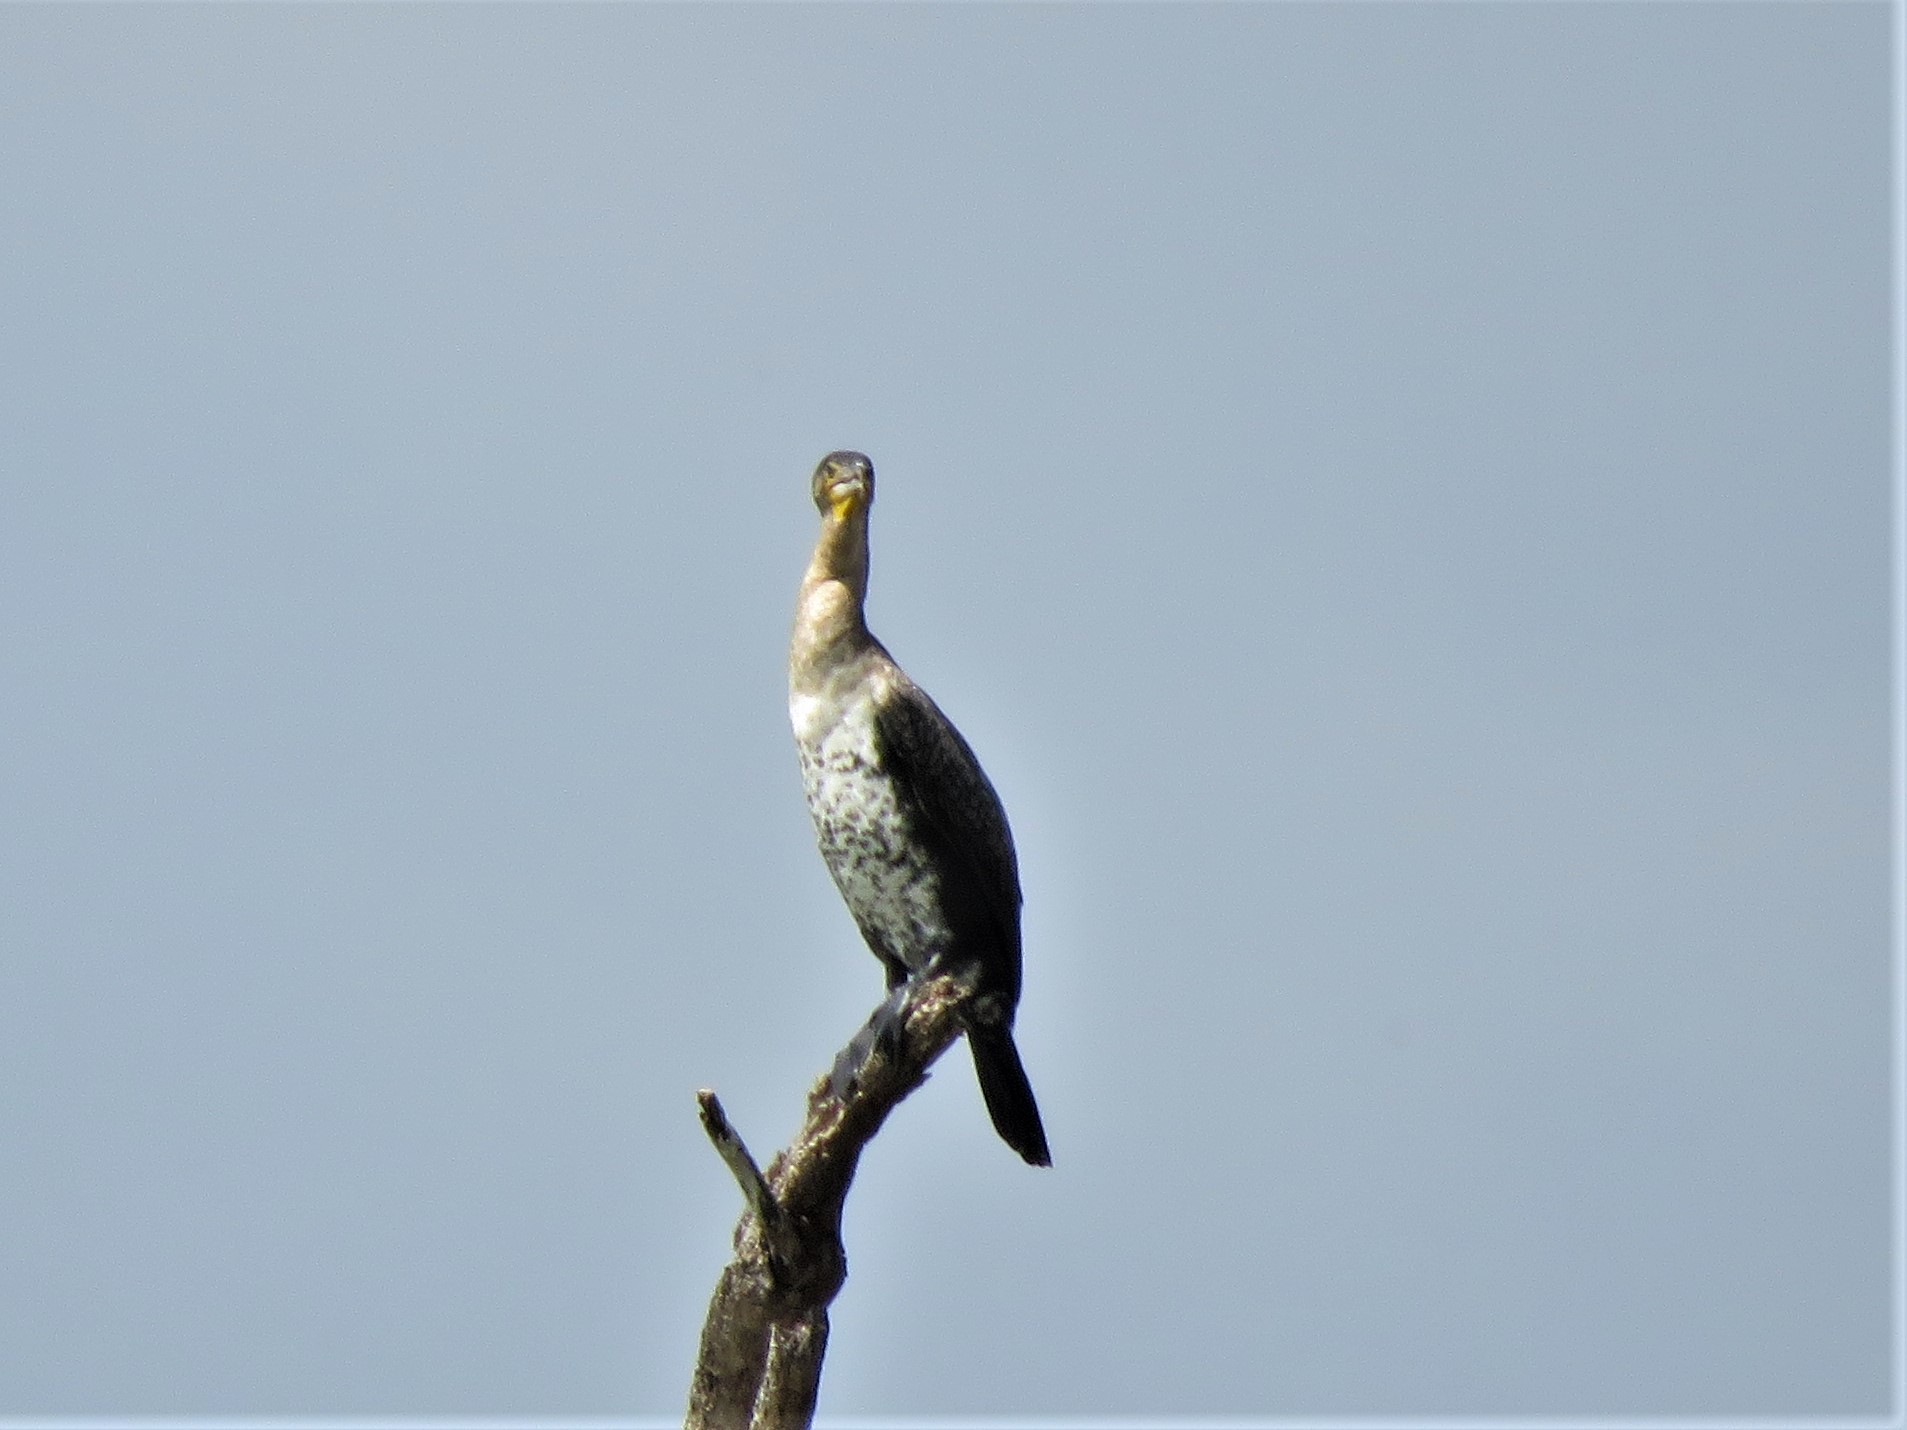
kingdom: Animalia
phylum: Chordata
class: Aves
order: Suliformes
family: Phalacrocoracidae
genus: Phalacrocorax
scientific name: Phalacrocorax carbo
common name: Great cormorant
